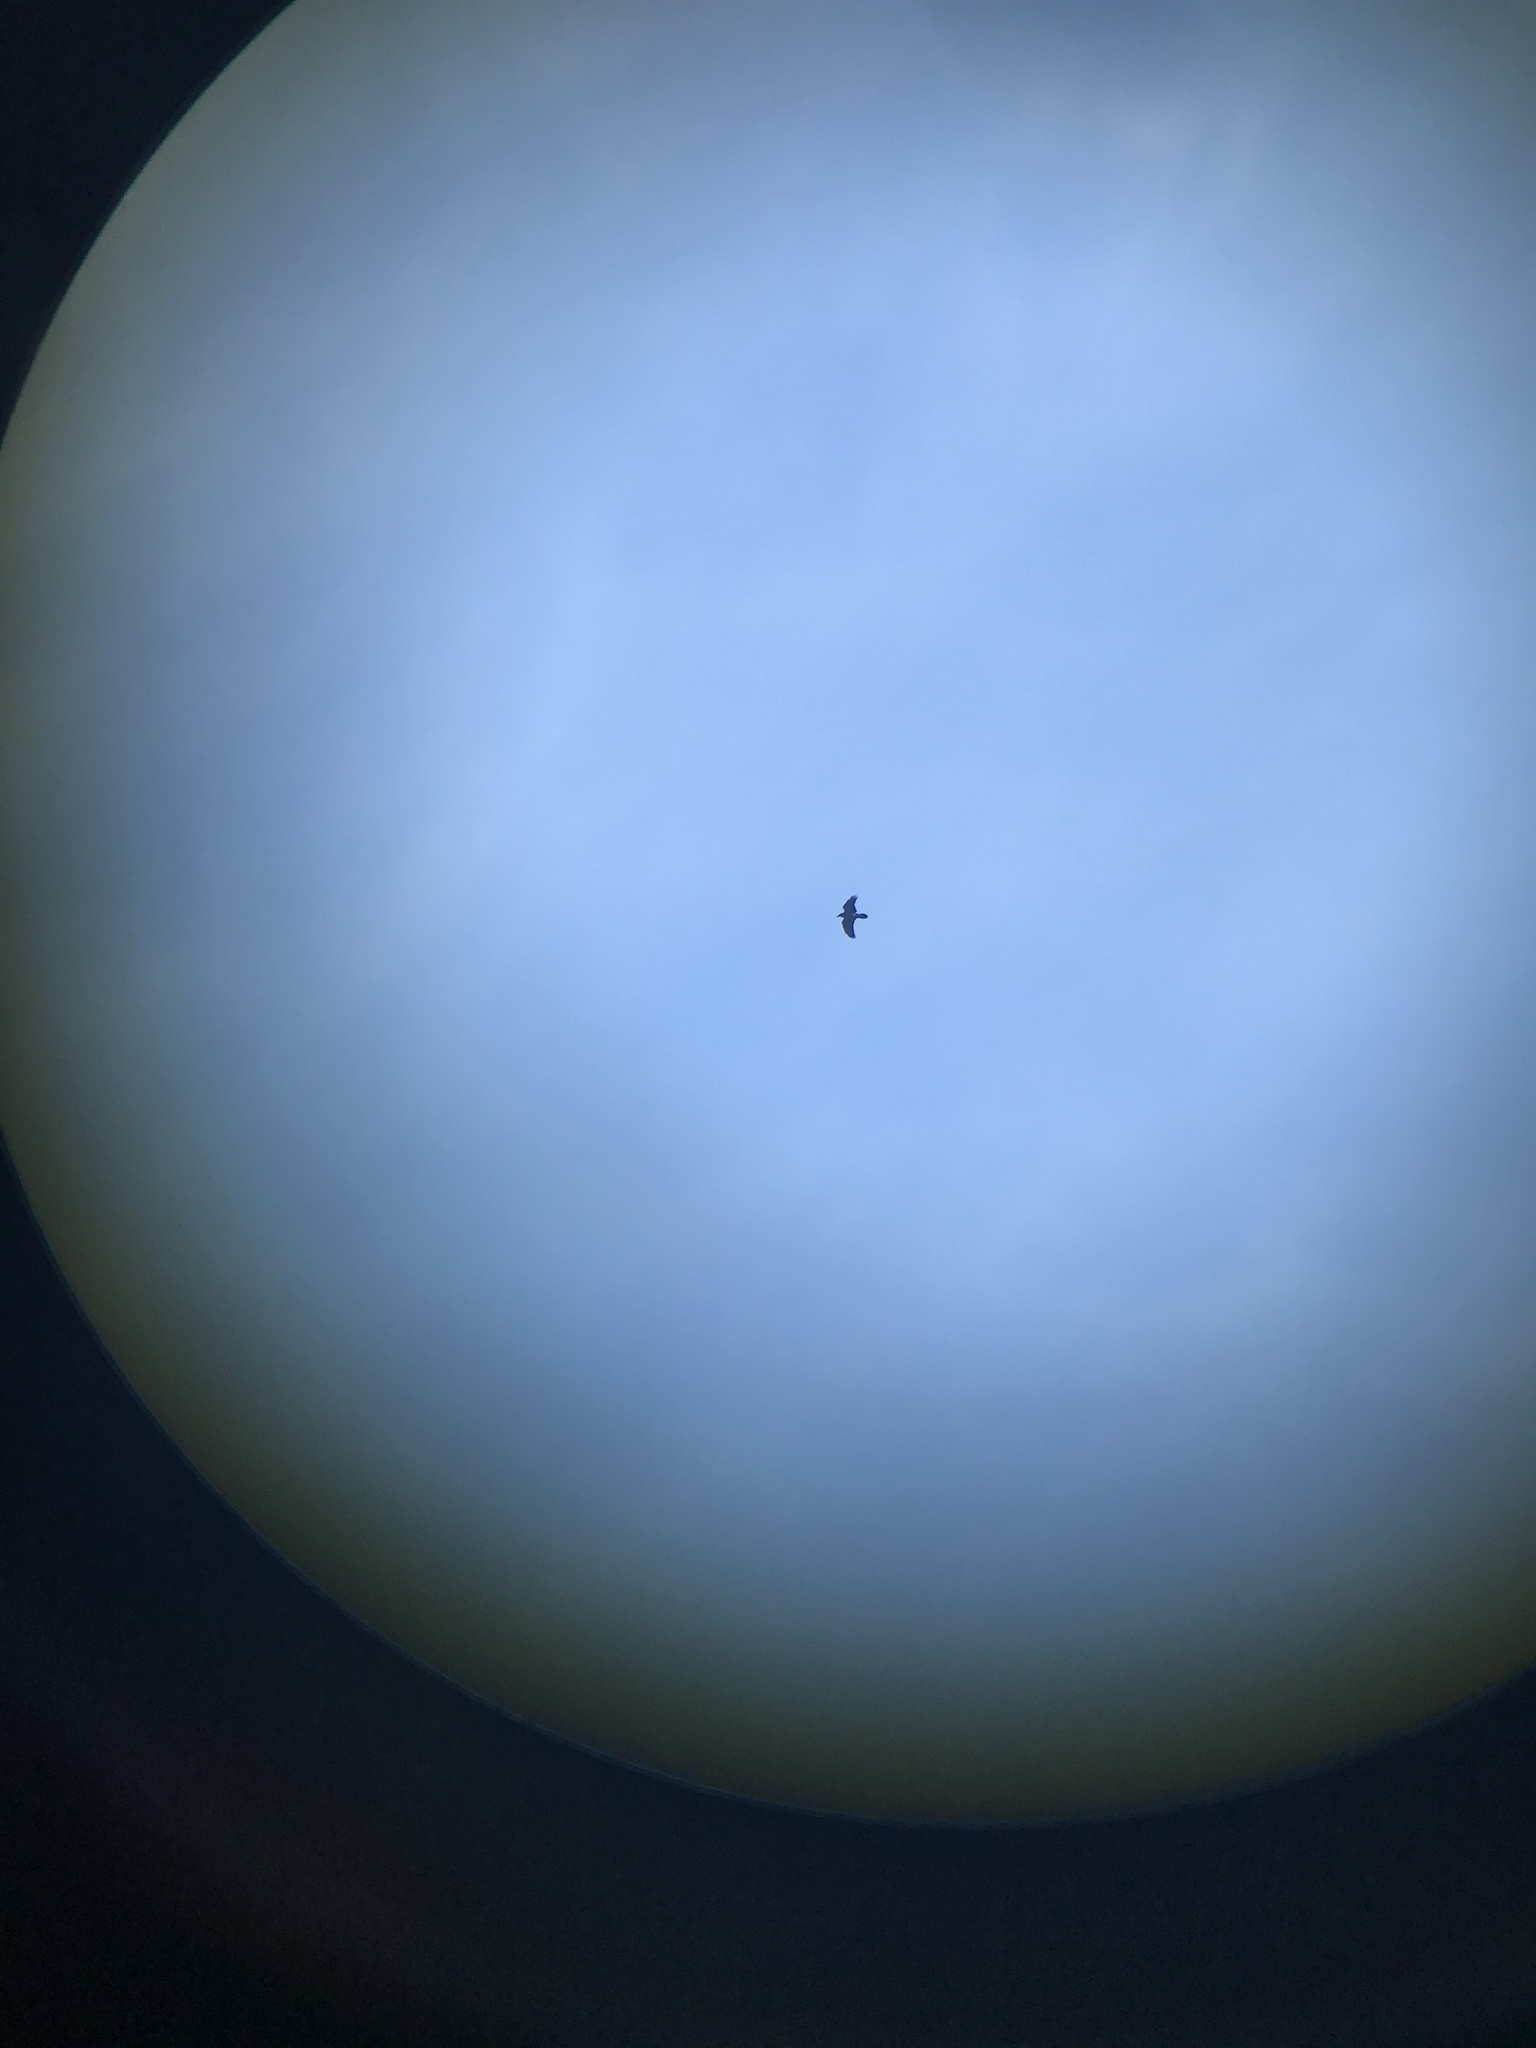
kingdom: Animalia
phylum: Chordata
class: Aves
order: Passeriformes
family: Corvidae
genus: Corvus
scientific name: Corvus corax
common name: Common raven
